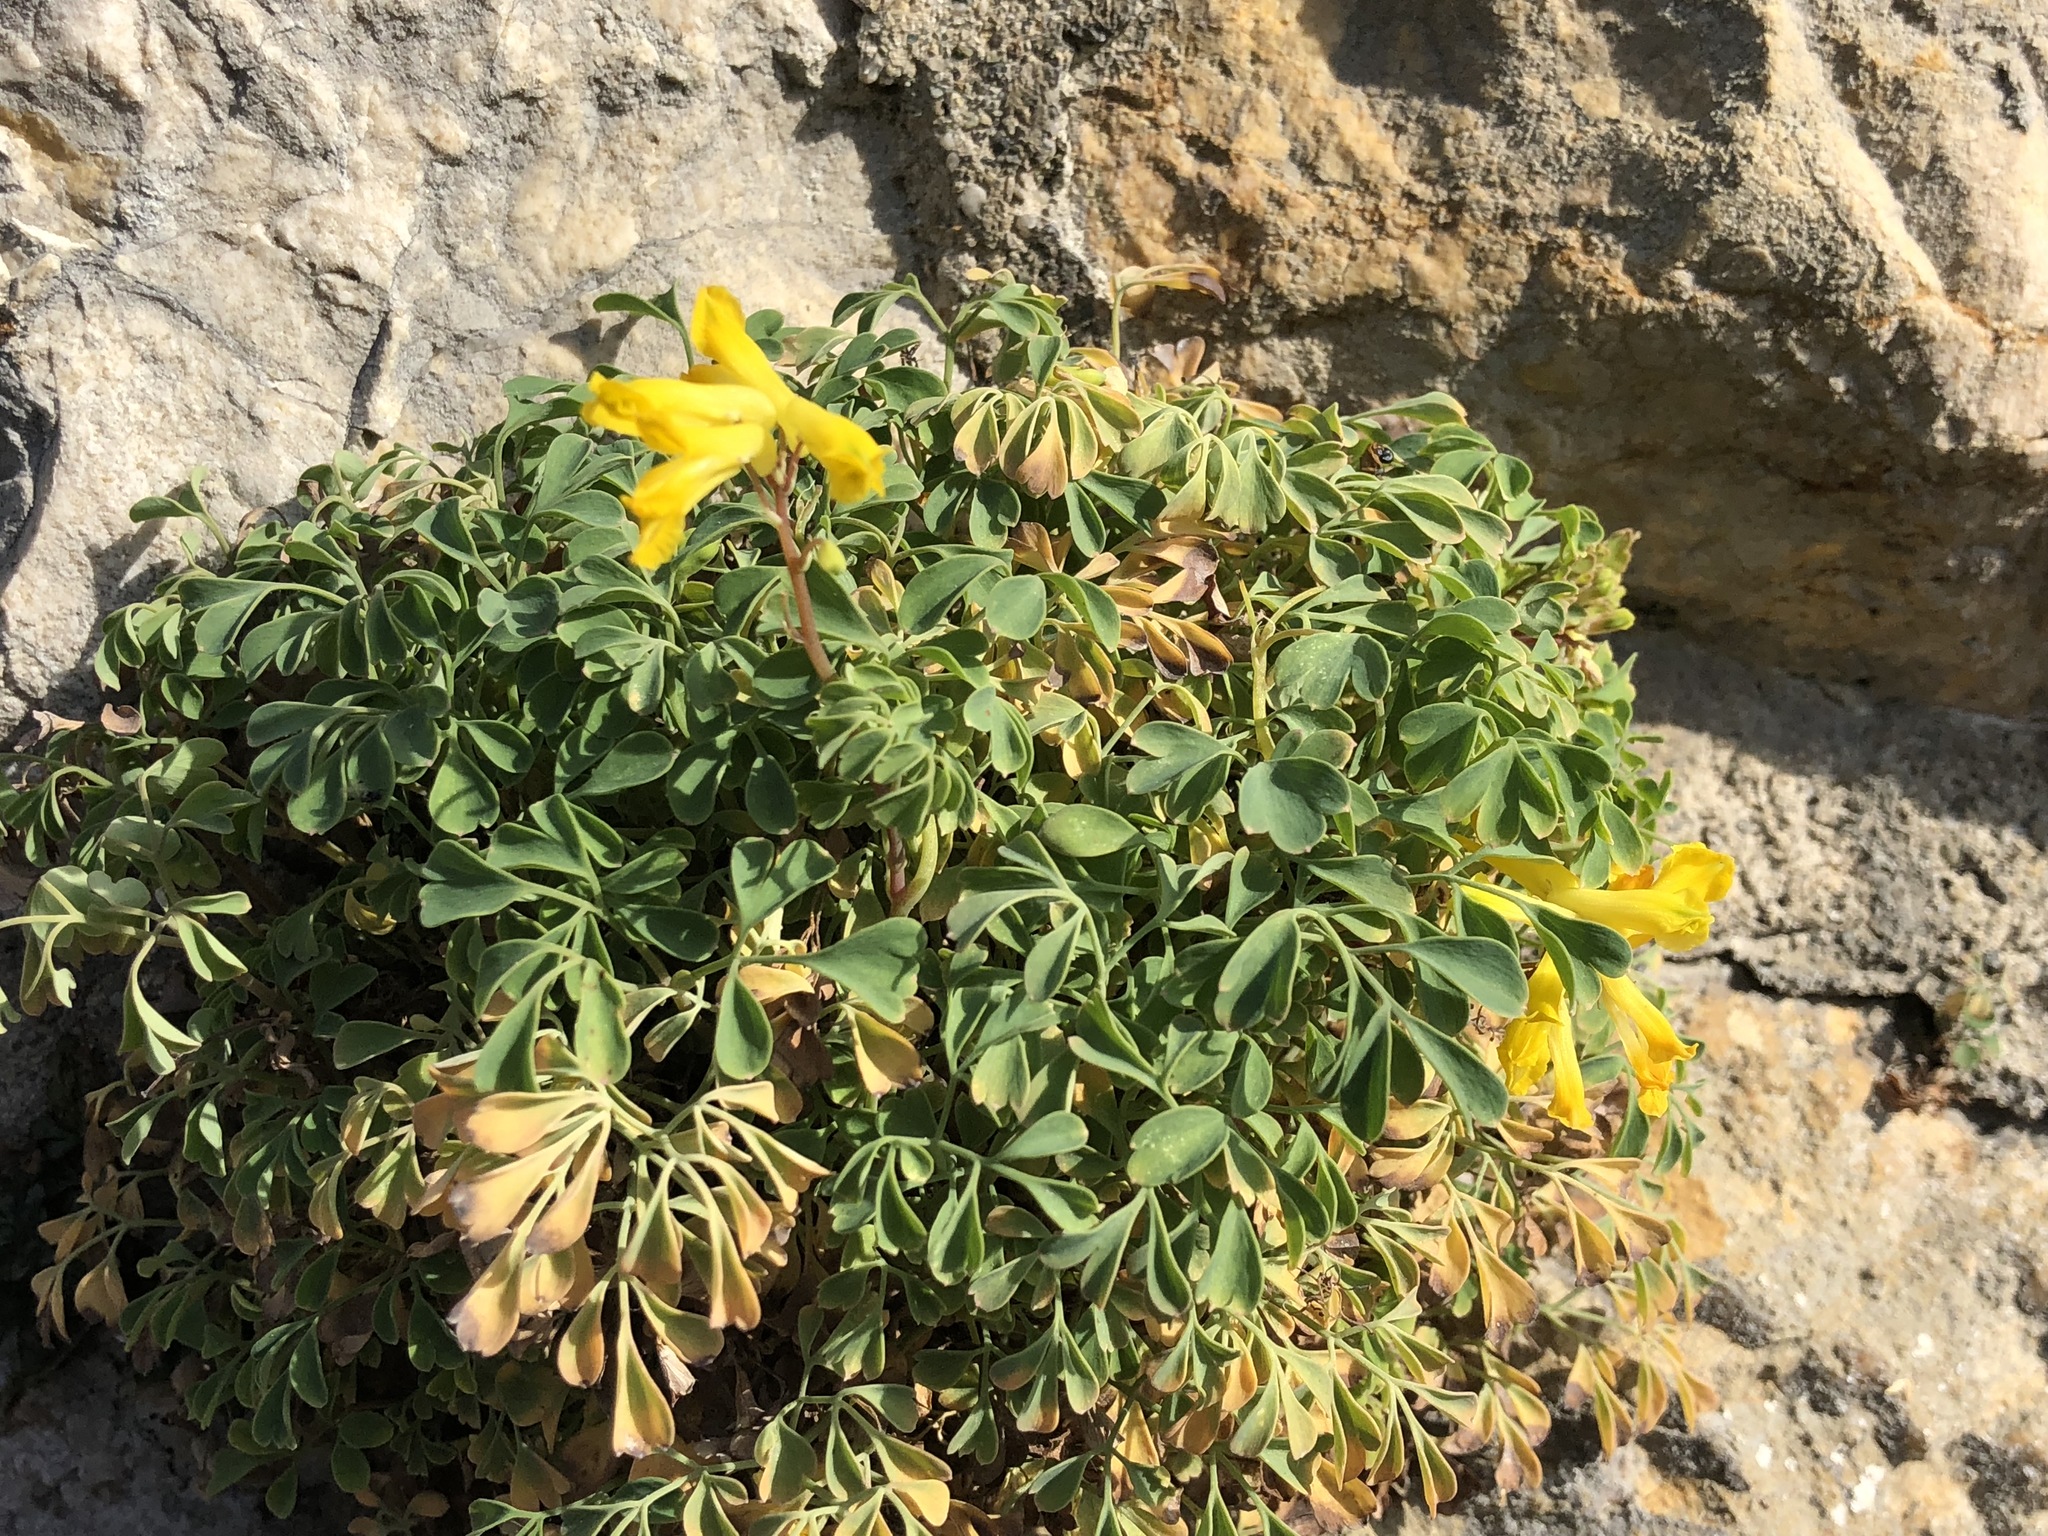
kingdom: Plantae
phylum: Tracheophyta
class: Magnoliopsida
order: Ranunculales
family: Papaveraceae
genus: Pseudofumaria
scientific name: Pseudofumaria lutea
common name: Yellow corydalis
